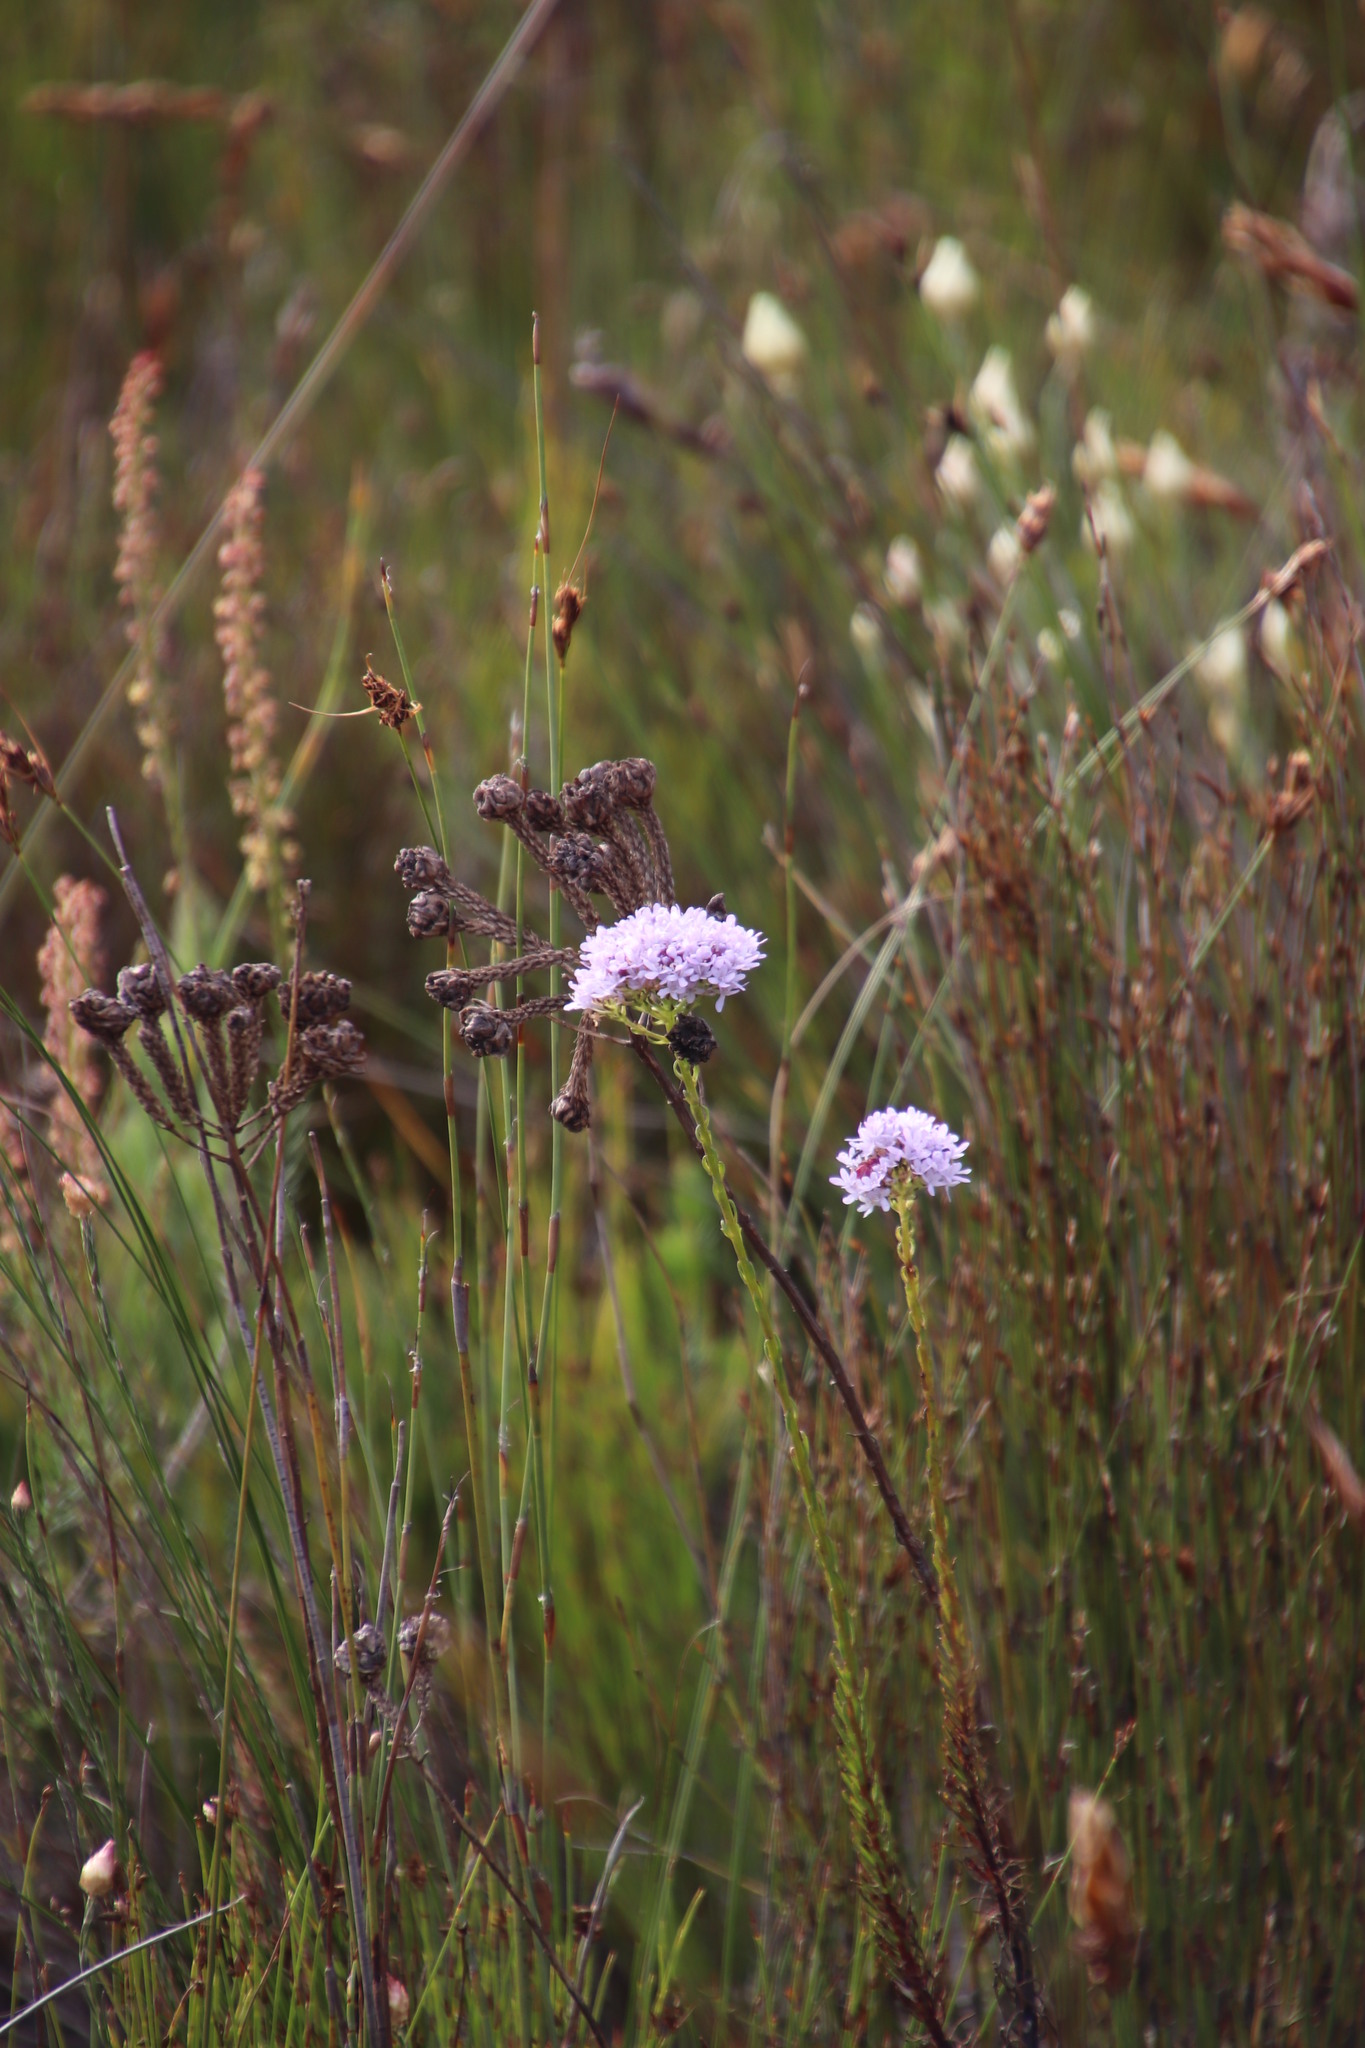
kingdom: Plantae
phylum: Tracheophyta
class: Magnoliopsida
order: Lamiales
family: Scrophulariaceae
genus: Pseudoselago
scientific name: Pseudoselago spuria
